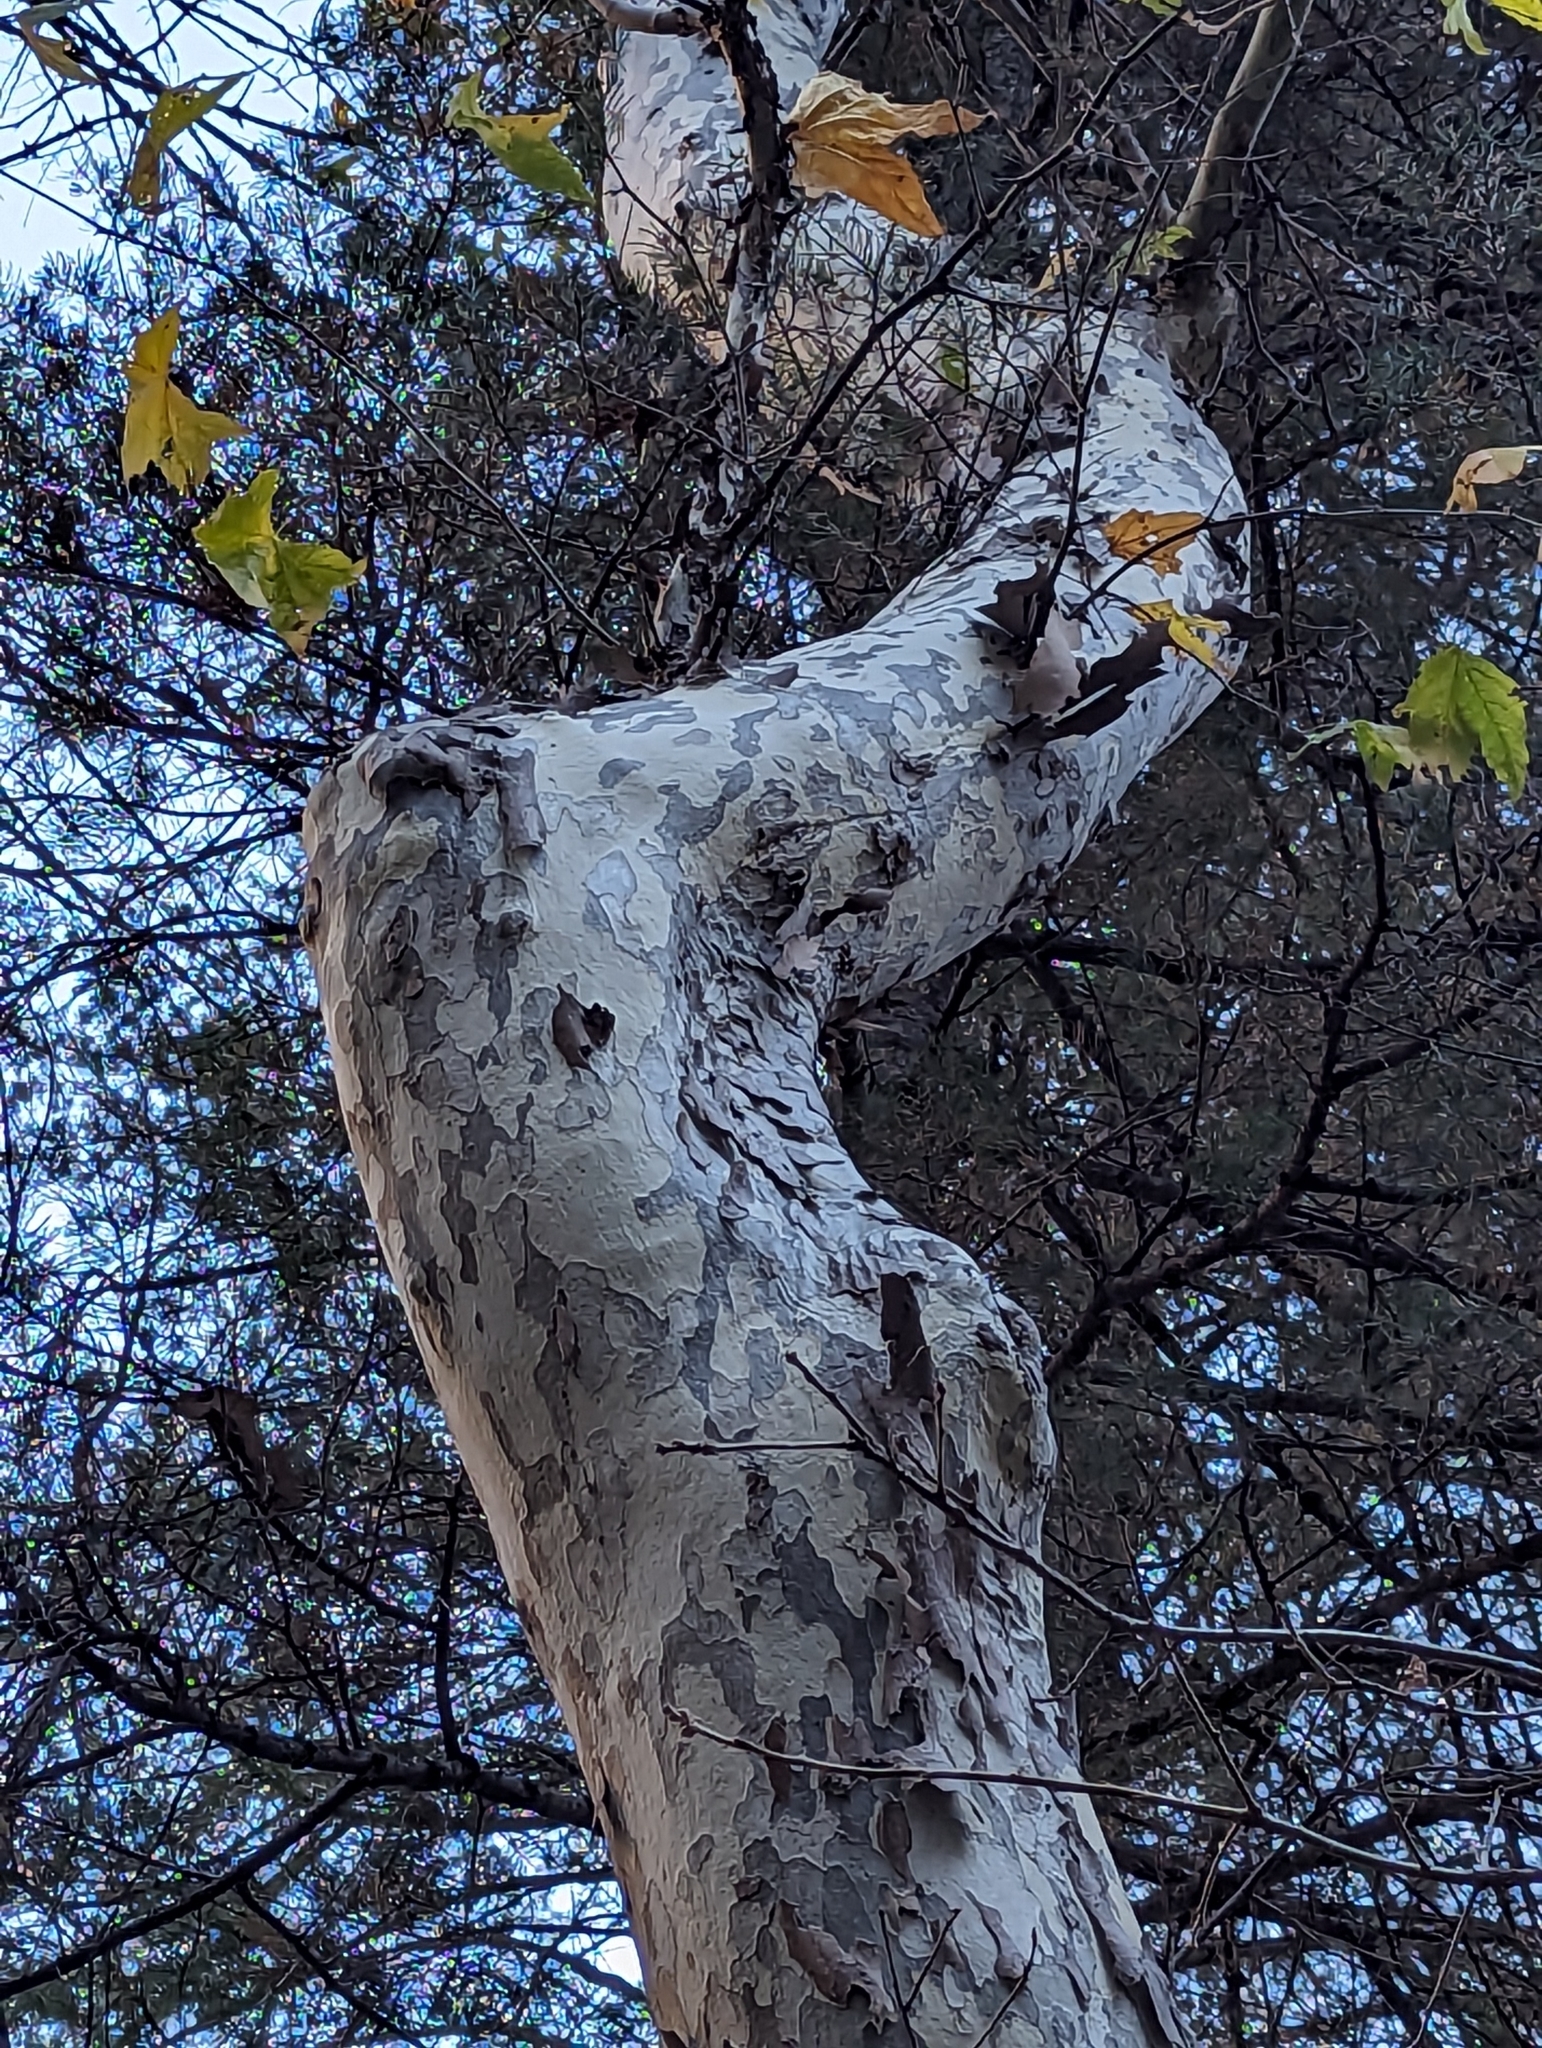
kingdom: Plantae
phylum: Tracheophyta
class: Magnoliopsida
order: Proteales
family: Platanaceae
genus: Platanus
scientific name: Platanus wrightii
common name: Arizona sycamore
